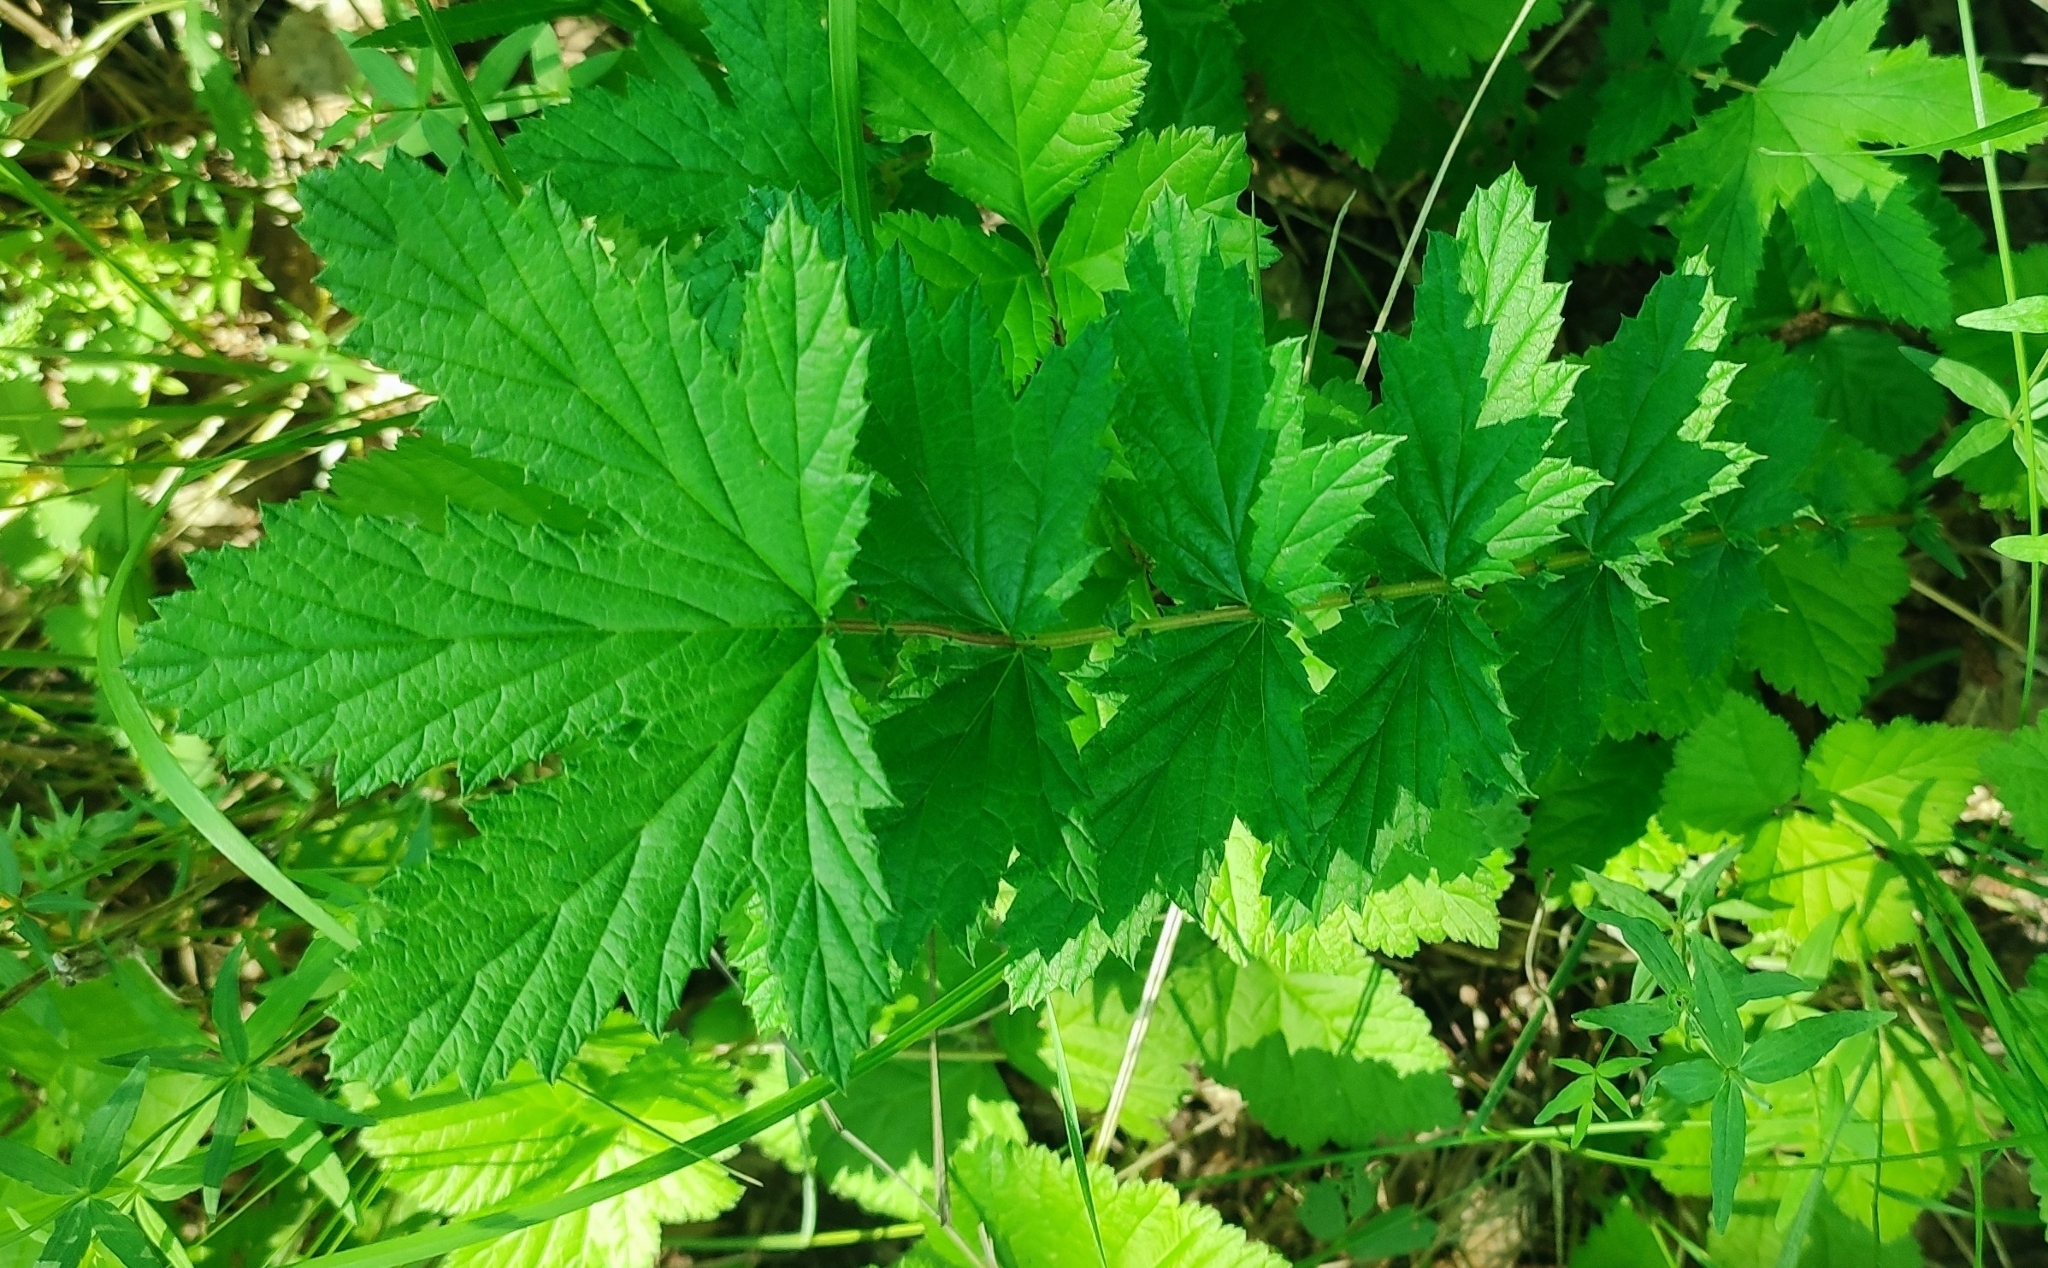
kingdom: Plantae
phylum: Tracheophyta
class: Magnoliopsida
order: Rosales
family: Rosaceae
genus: Filipendula
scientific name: Filipendula ulmaria
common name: Meadowsweet
